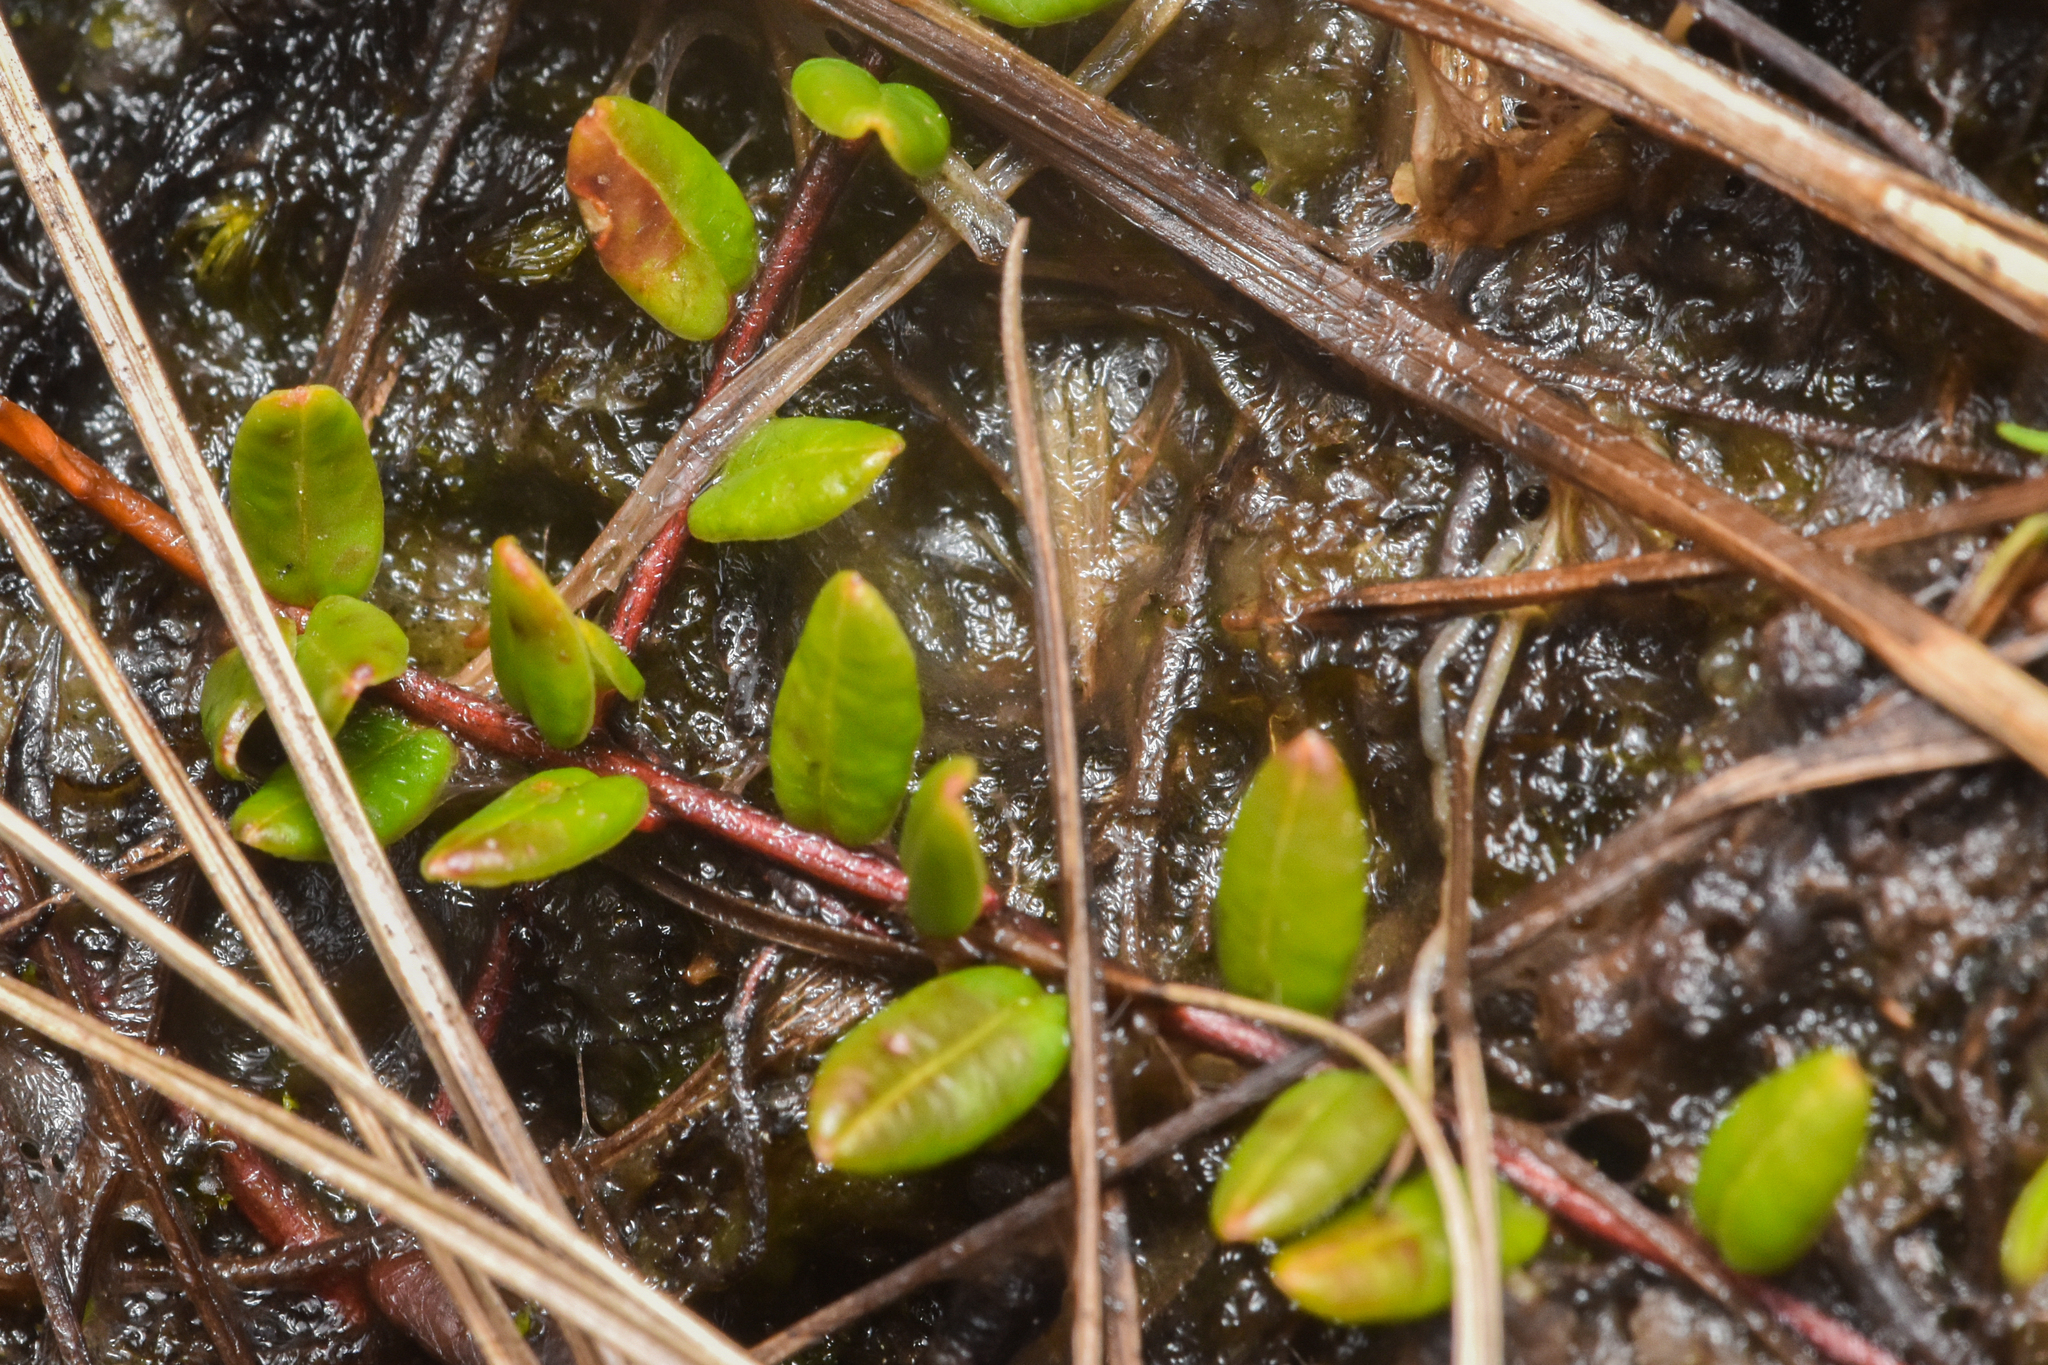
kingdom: Plantae
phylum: Tracheophyta
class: Magnoliopsida
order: Ericales
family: Ericaceae
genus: Vaccinium
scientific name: Vaccinium oxycoccos
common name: Cranberry
